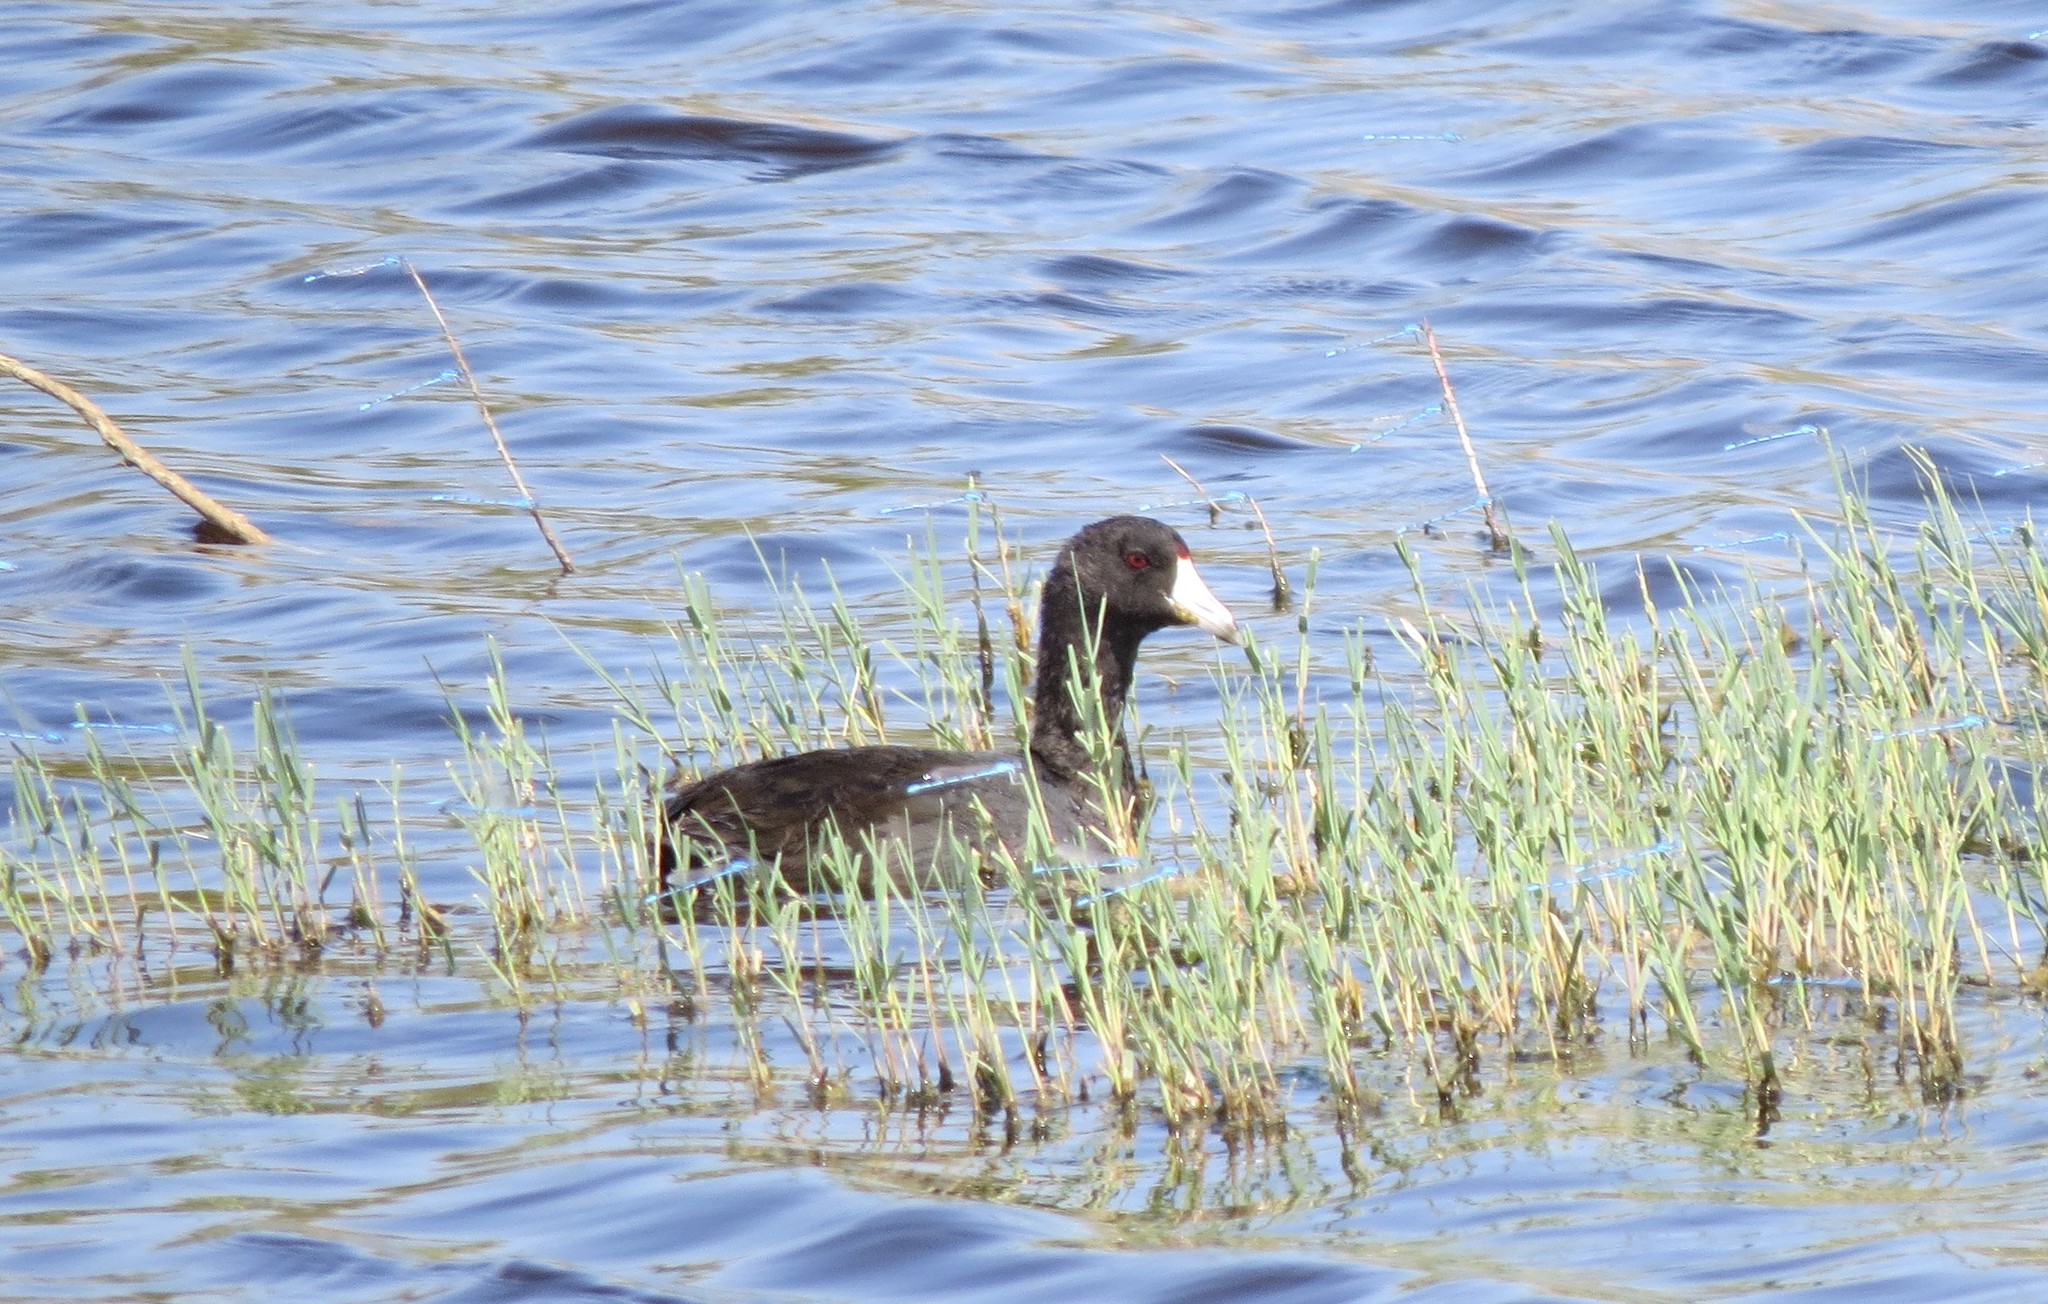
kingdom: Animalia
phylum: Chordata
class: Aves
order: Gruiformes
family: Rallidae
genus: Fulica
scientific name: Fulica americana
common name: American coot
